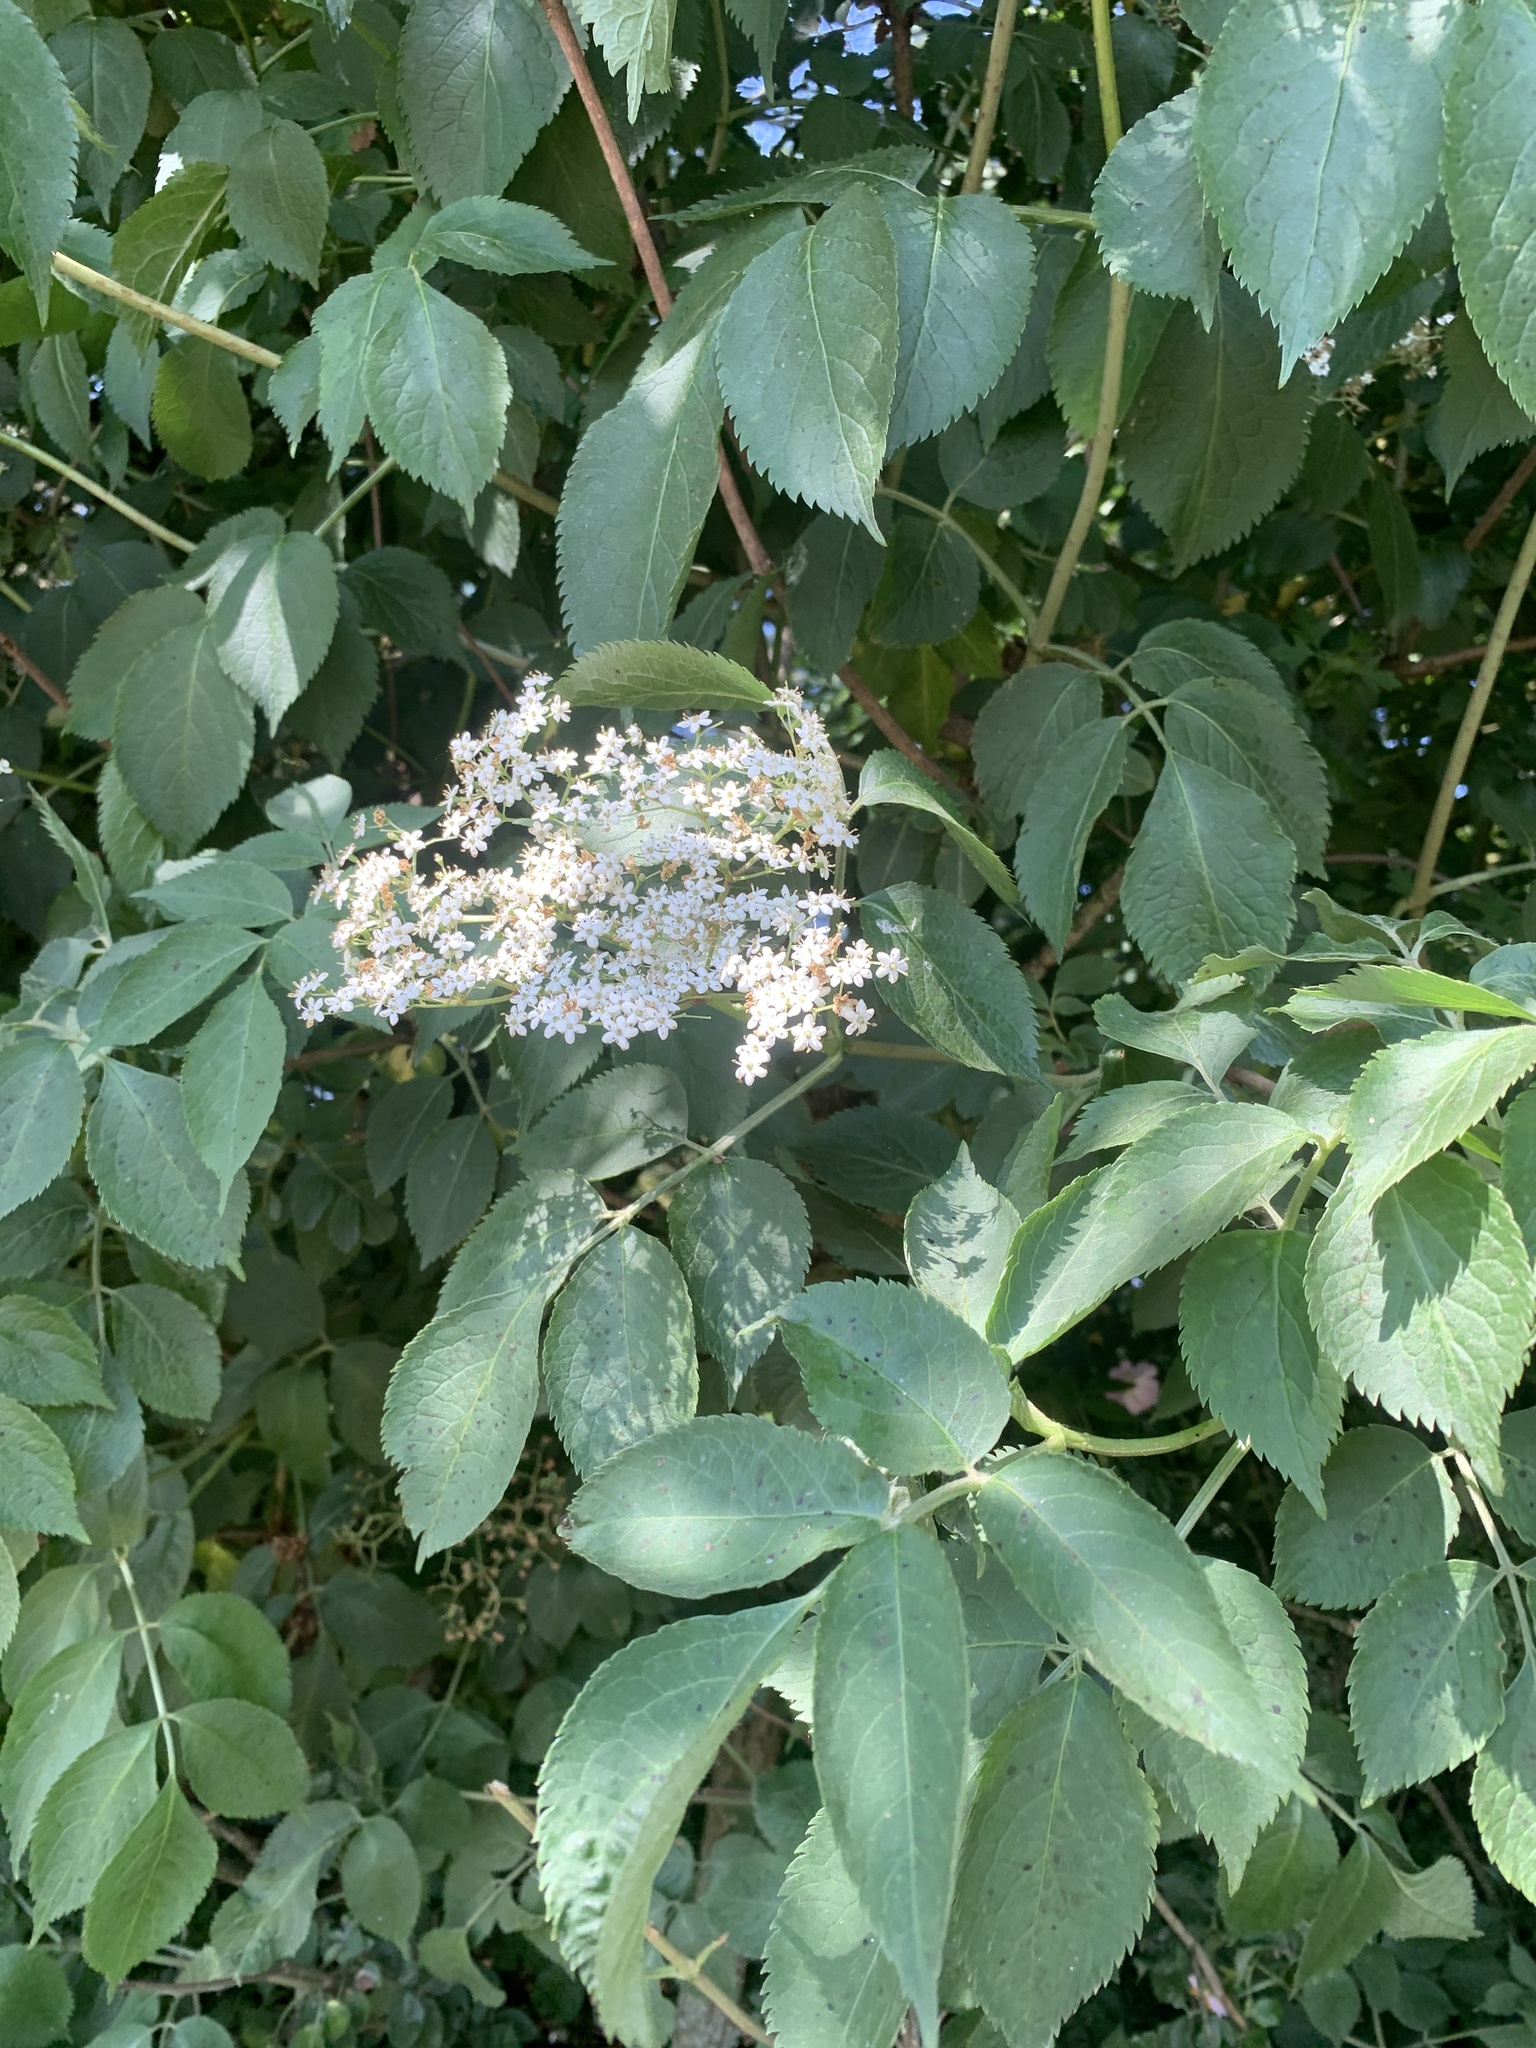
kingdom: Plantae
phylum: Tracheophyta
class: Magnoliopsida
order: Dipsacales
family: Viburnaceae
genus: Sambucus
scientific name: Sambucus nigra
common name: Elder
